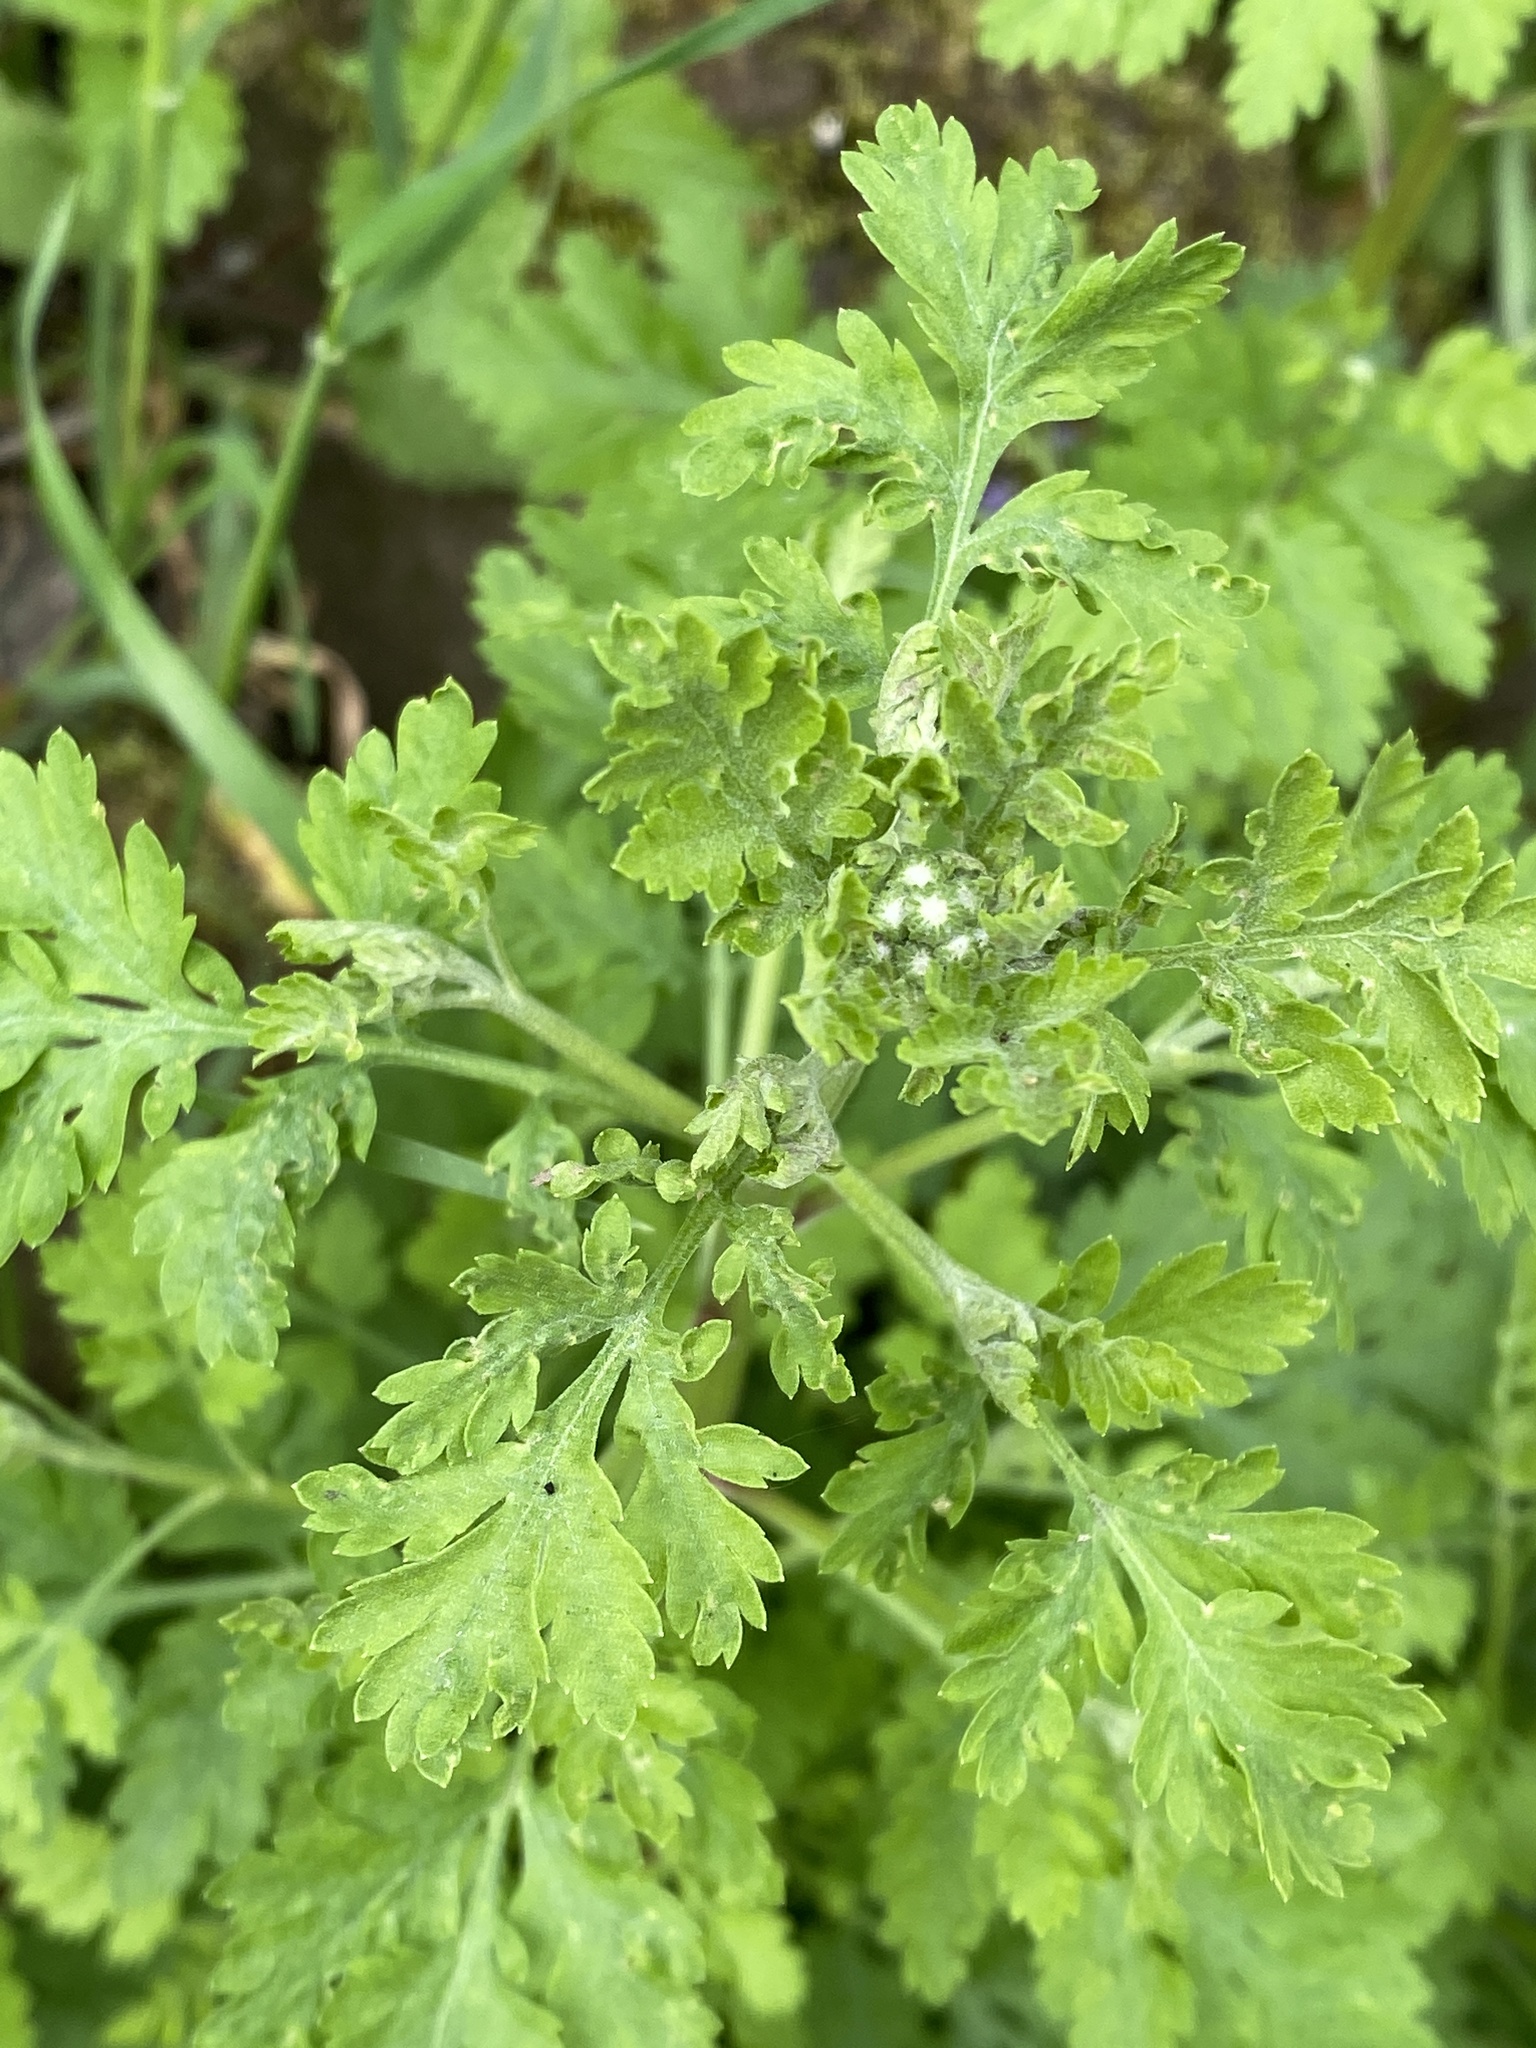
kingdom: Plantae
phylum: Tracheophyta
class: Magnoliopsida
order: Asterales
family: Asteraceae
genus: Tanacetum
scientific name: Tanacetum parthenium
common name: Feverfew
